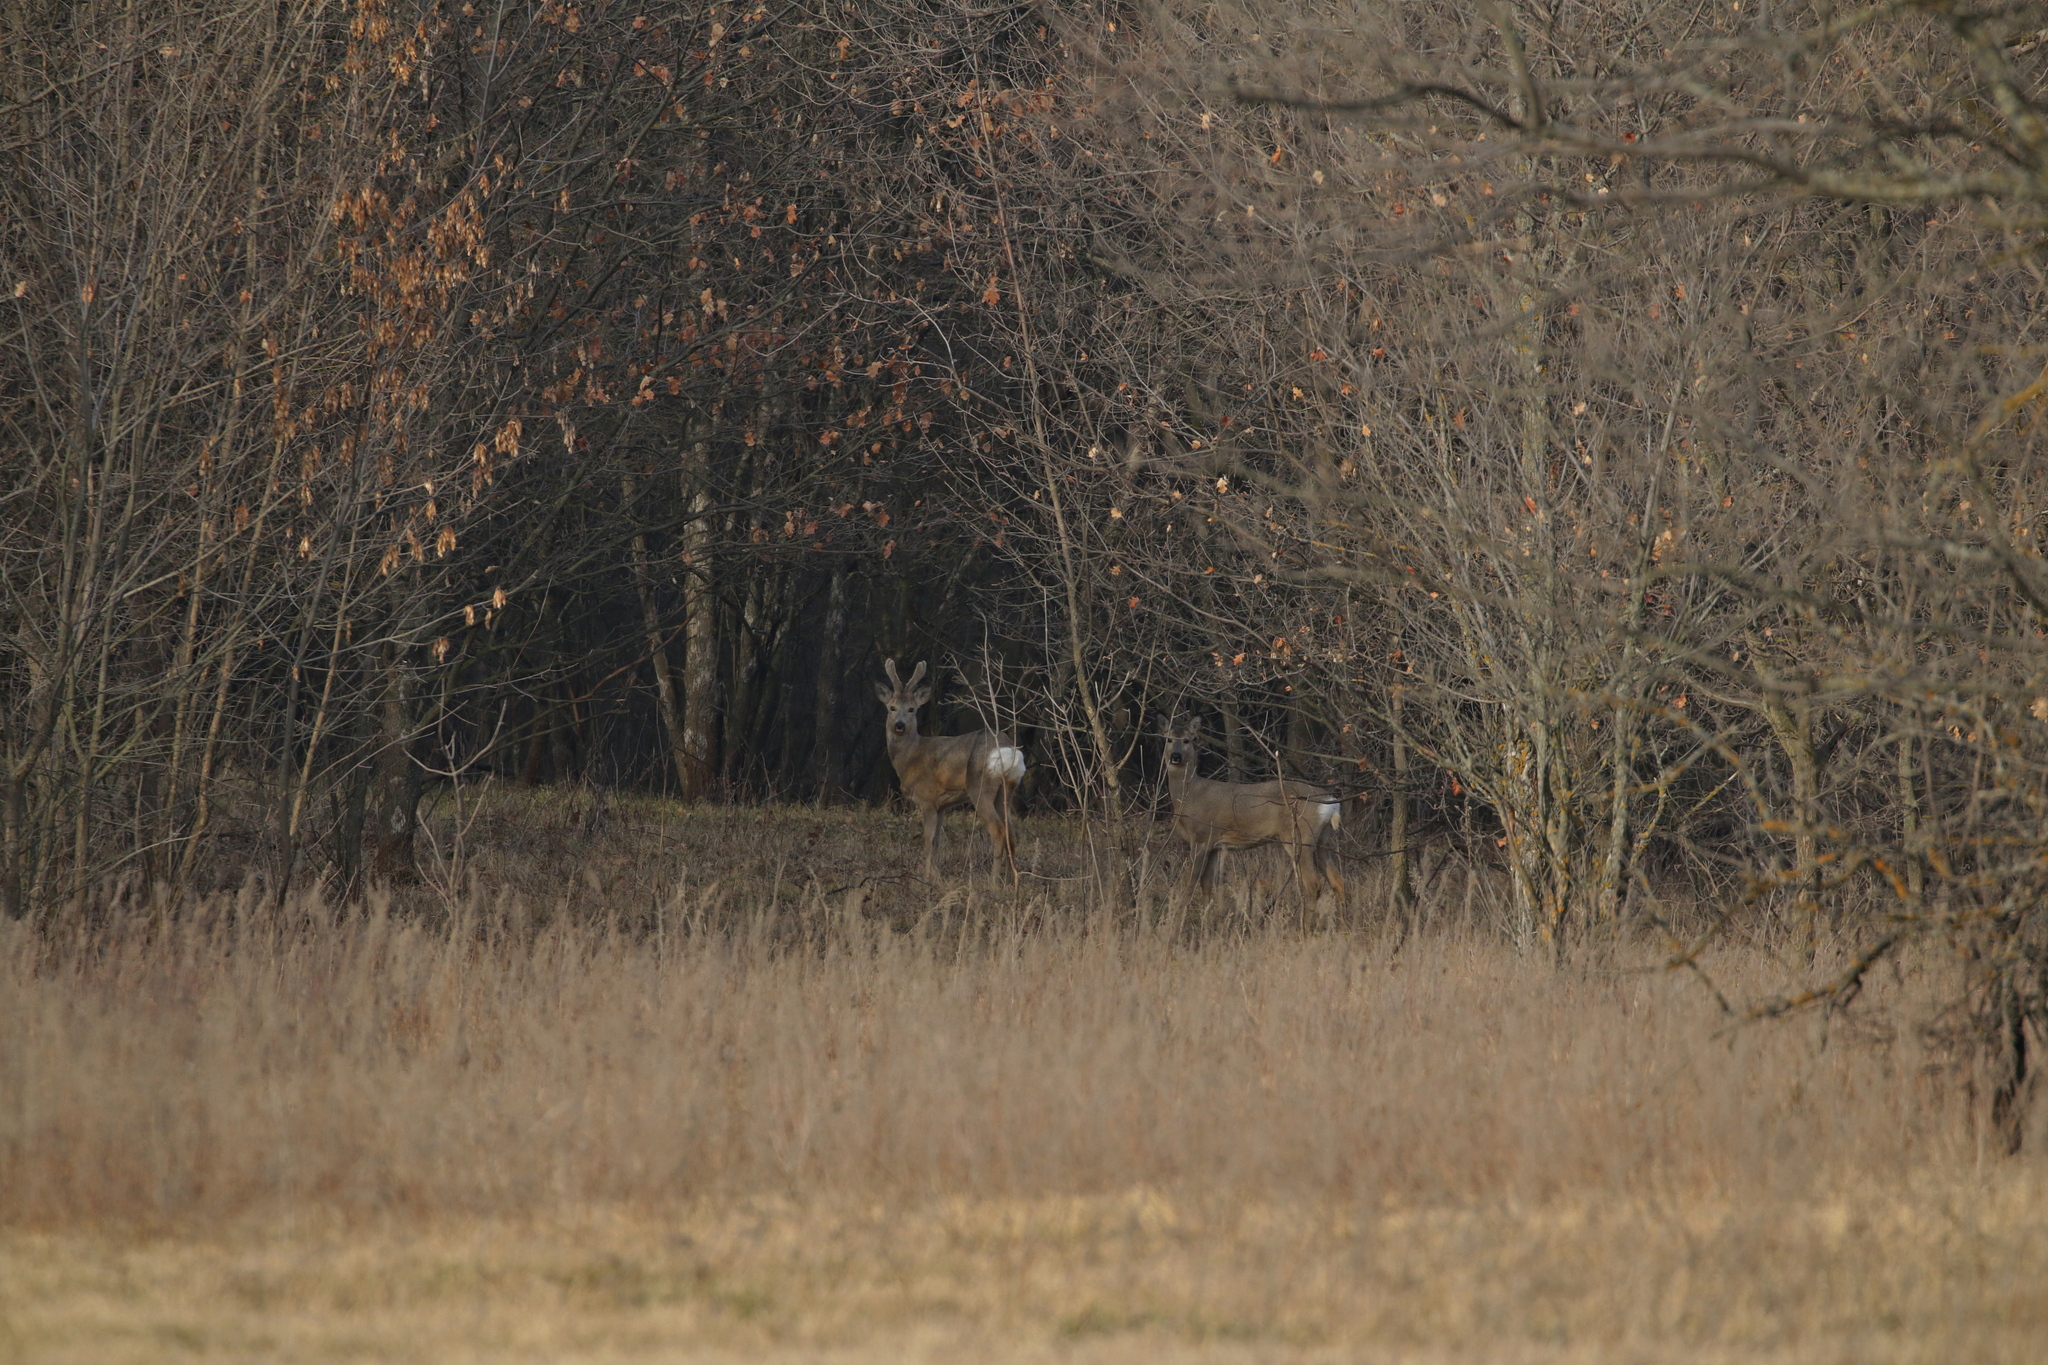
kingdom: Animalia
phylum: Chordata
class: Mammalia
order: Artiodactyla
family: Cervidae
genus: Capreolus
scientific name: Capreolus pygargus
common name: Siberian roe
